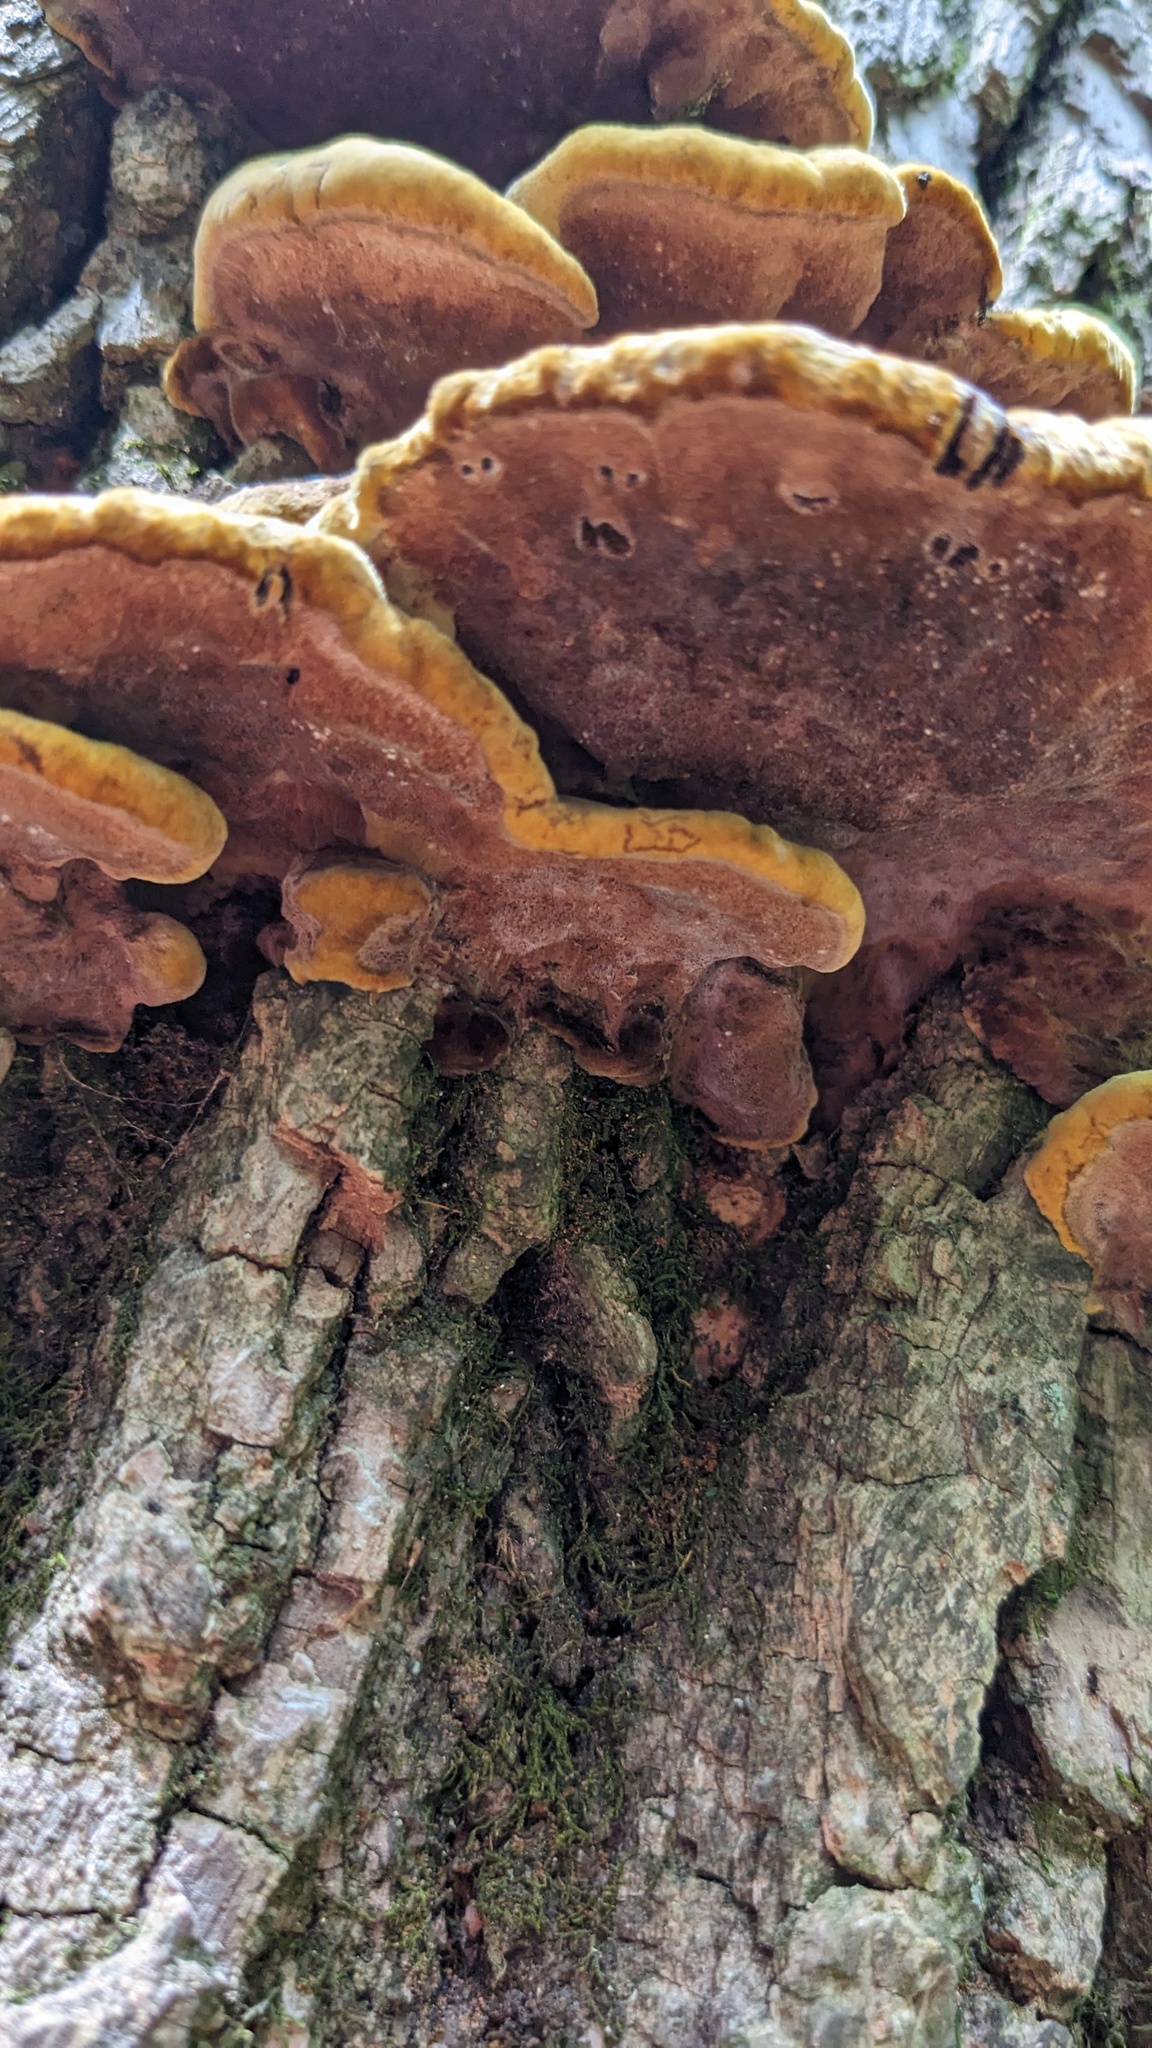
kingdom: Fungi
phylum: Basidiomycota
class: Agaricomycetes
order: Hymenochaetales
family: Hymenochaetaceae
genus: Phellinus
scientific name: Phellinus gilvus
